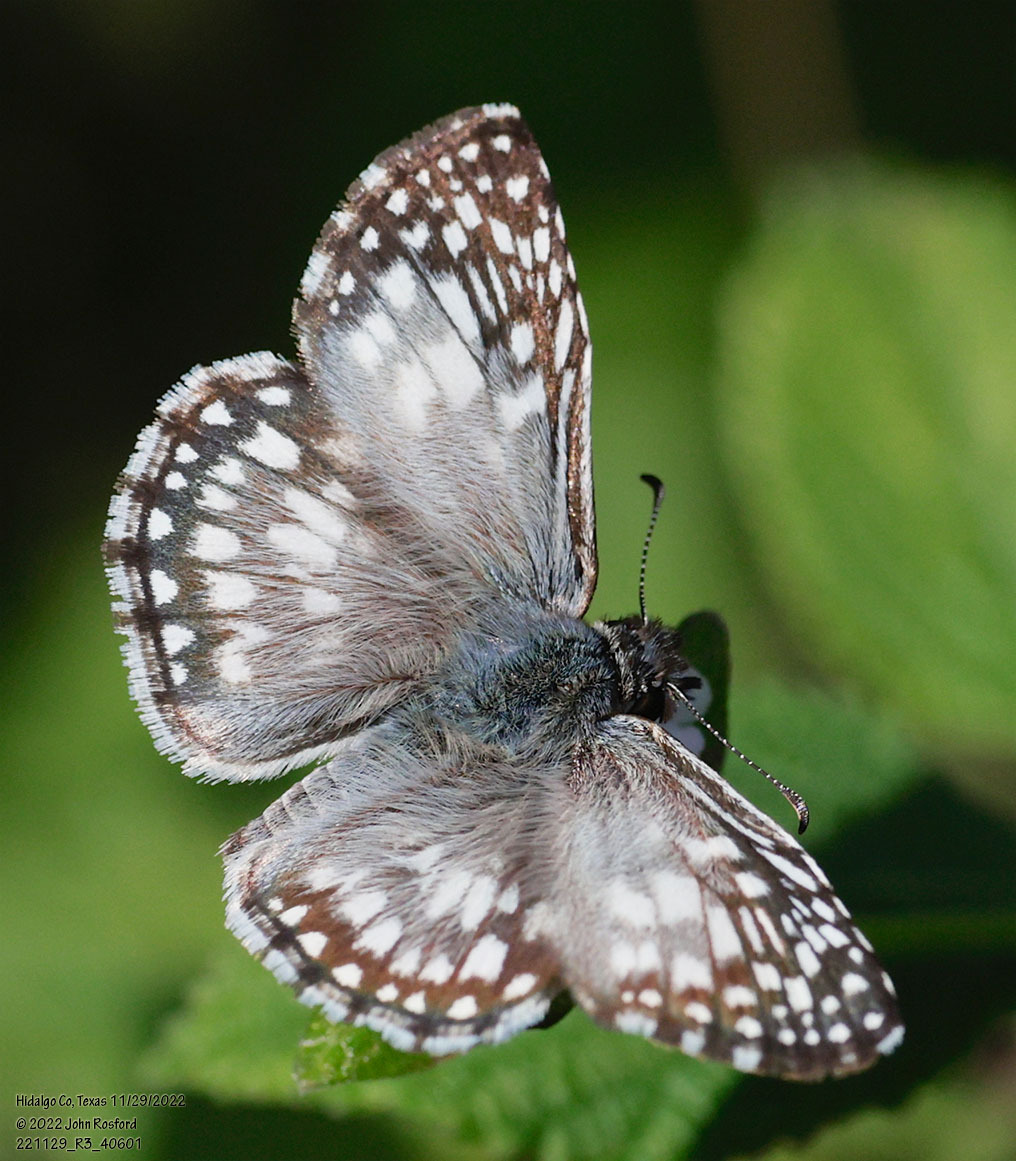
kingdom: Animalia
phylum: Arthropoda
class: Insecta
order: Lepidoptera
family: Hesperiidae
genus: Pyrgus
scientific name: Pyrgus oileus
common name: Tropical checkered-skipper
